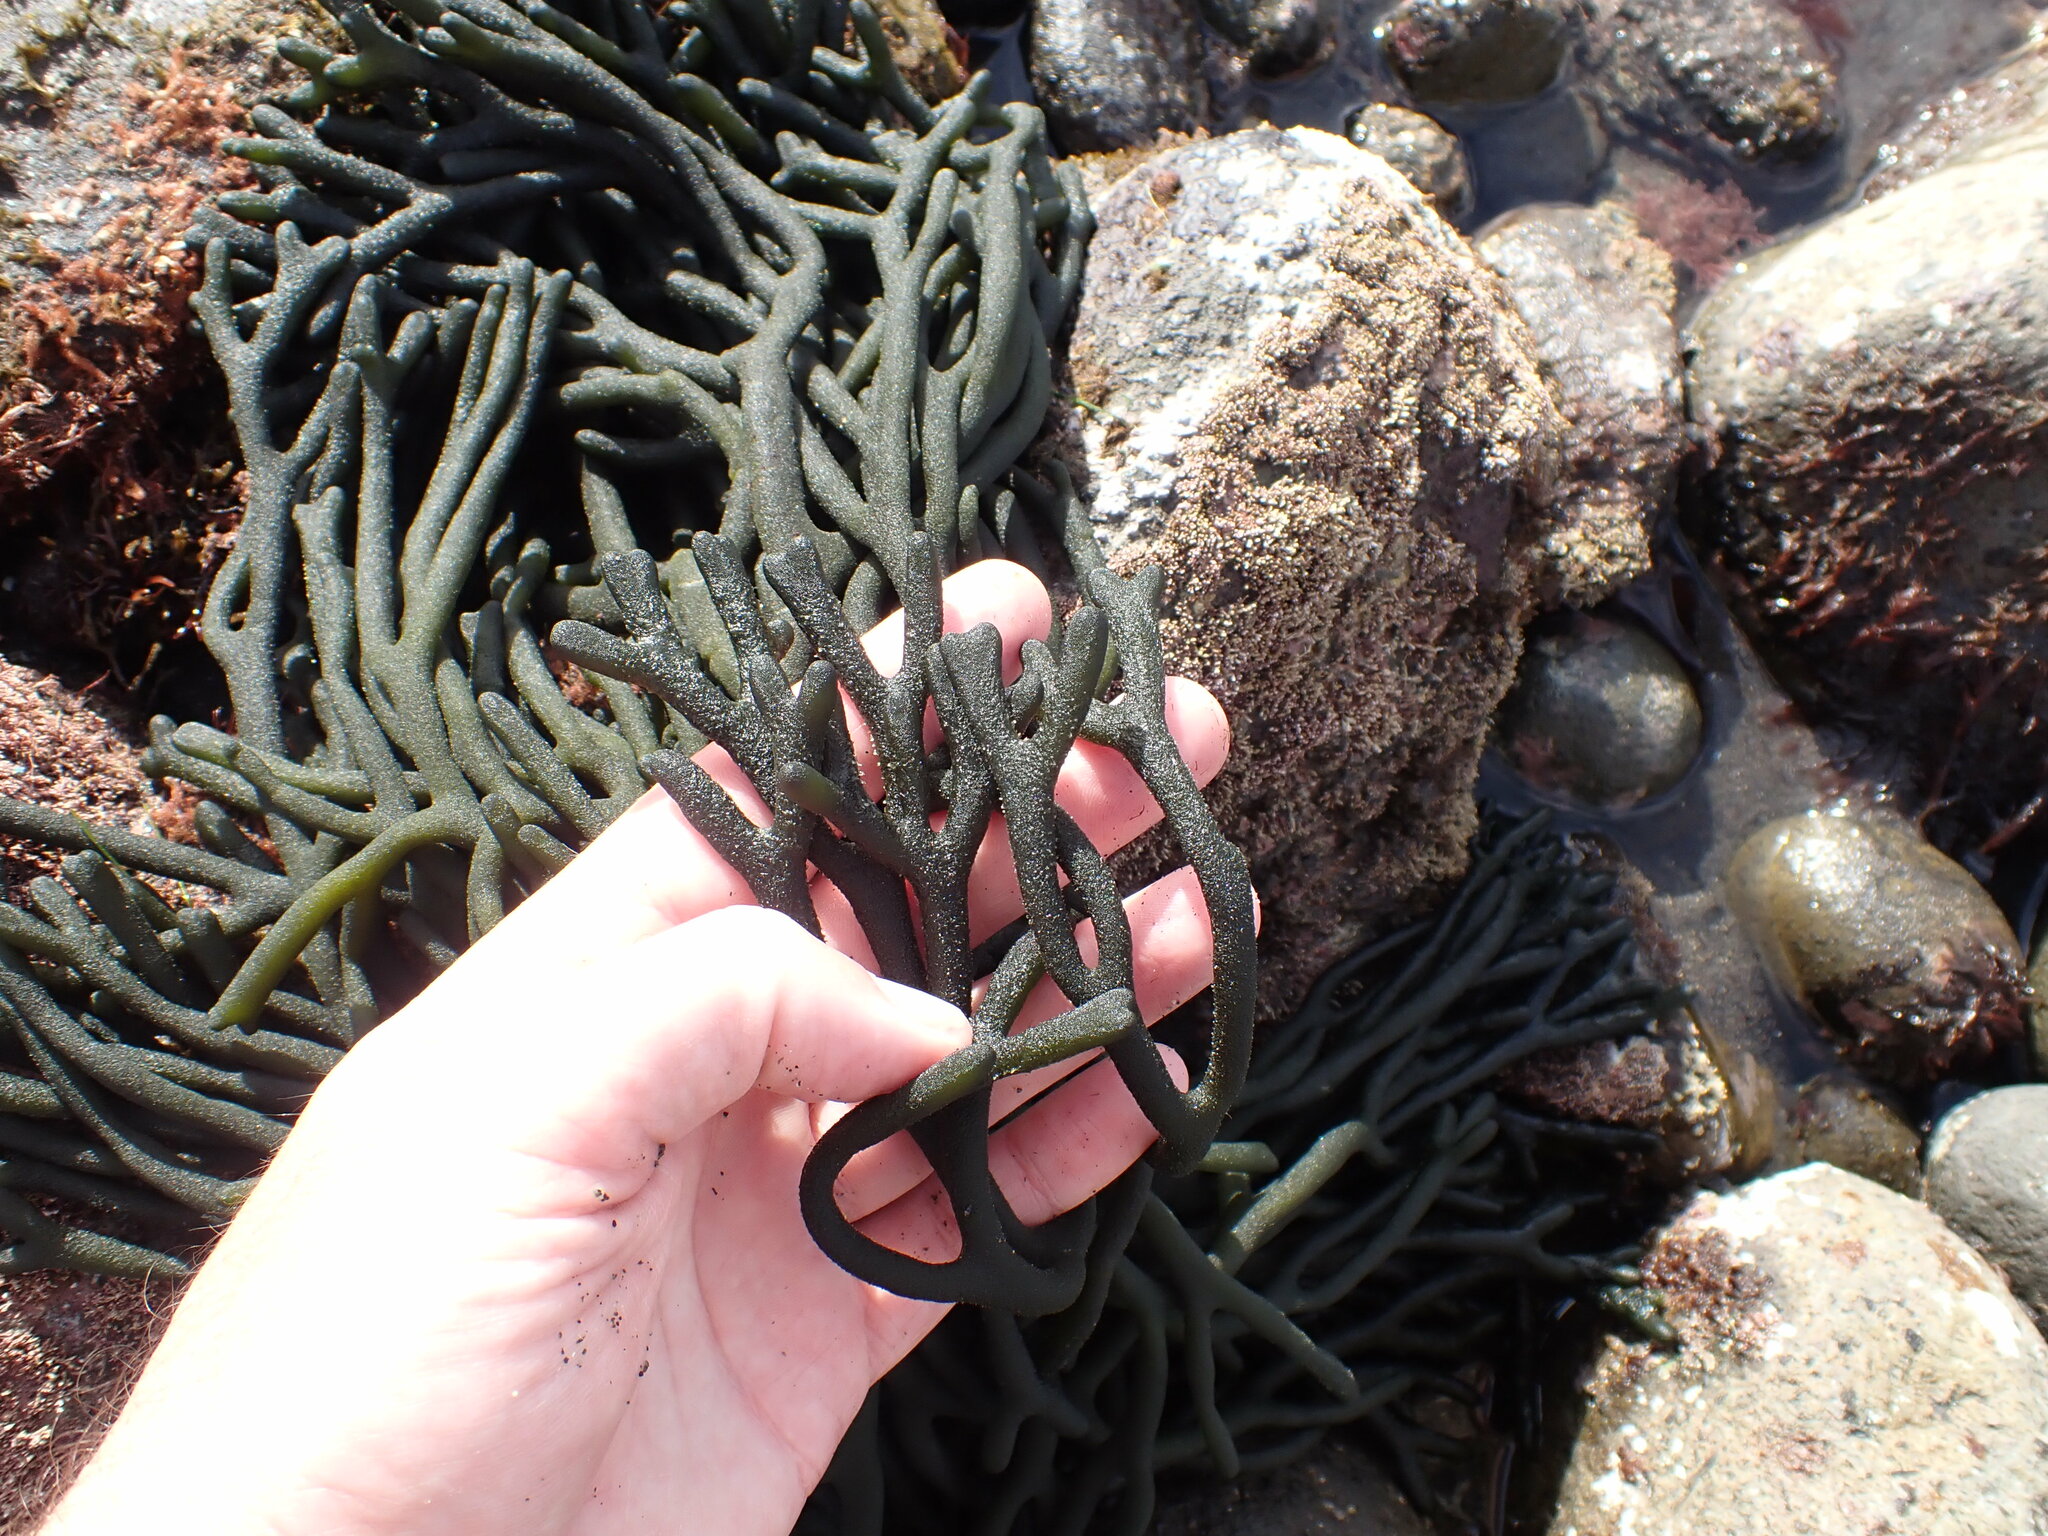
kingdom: Plantae
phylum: Chlorophyta
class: Ulvophyceae
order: Bryopsidales
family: Codiaceae
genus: Codium
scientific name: Codium fragile
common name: Dead man's fingers
